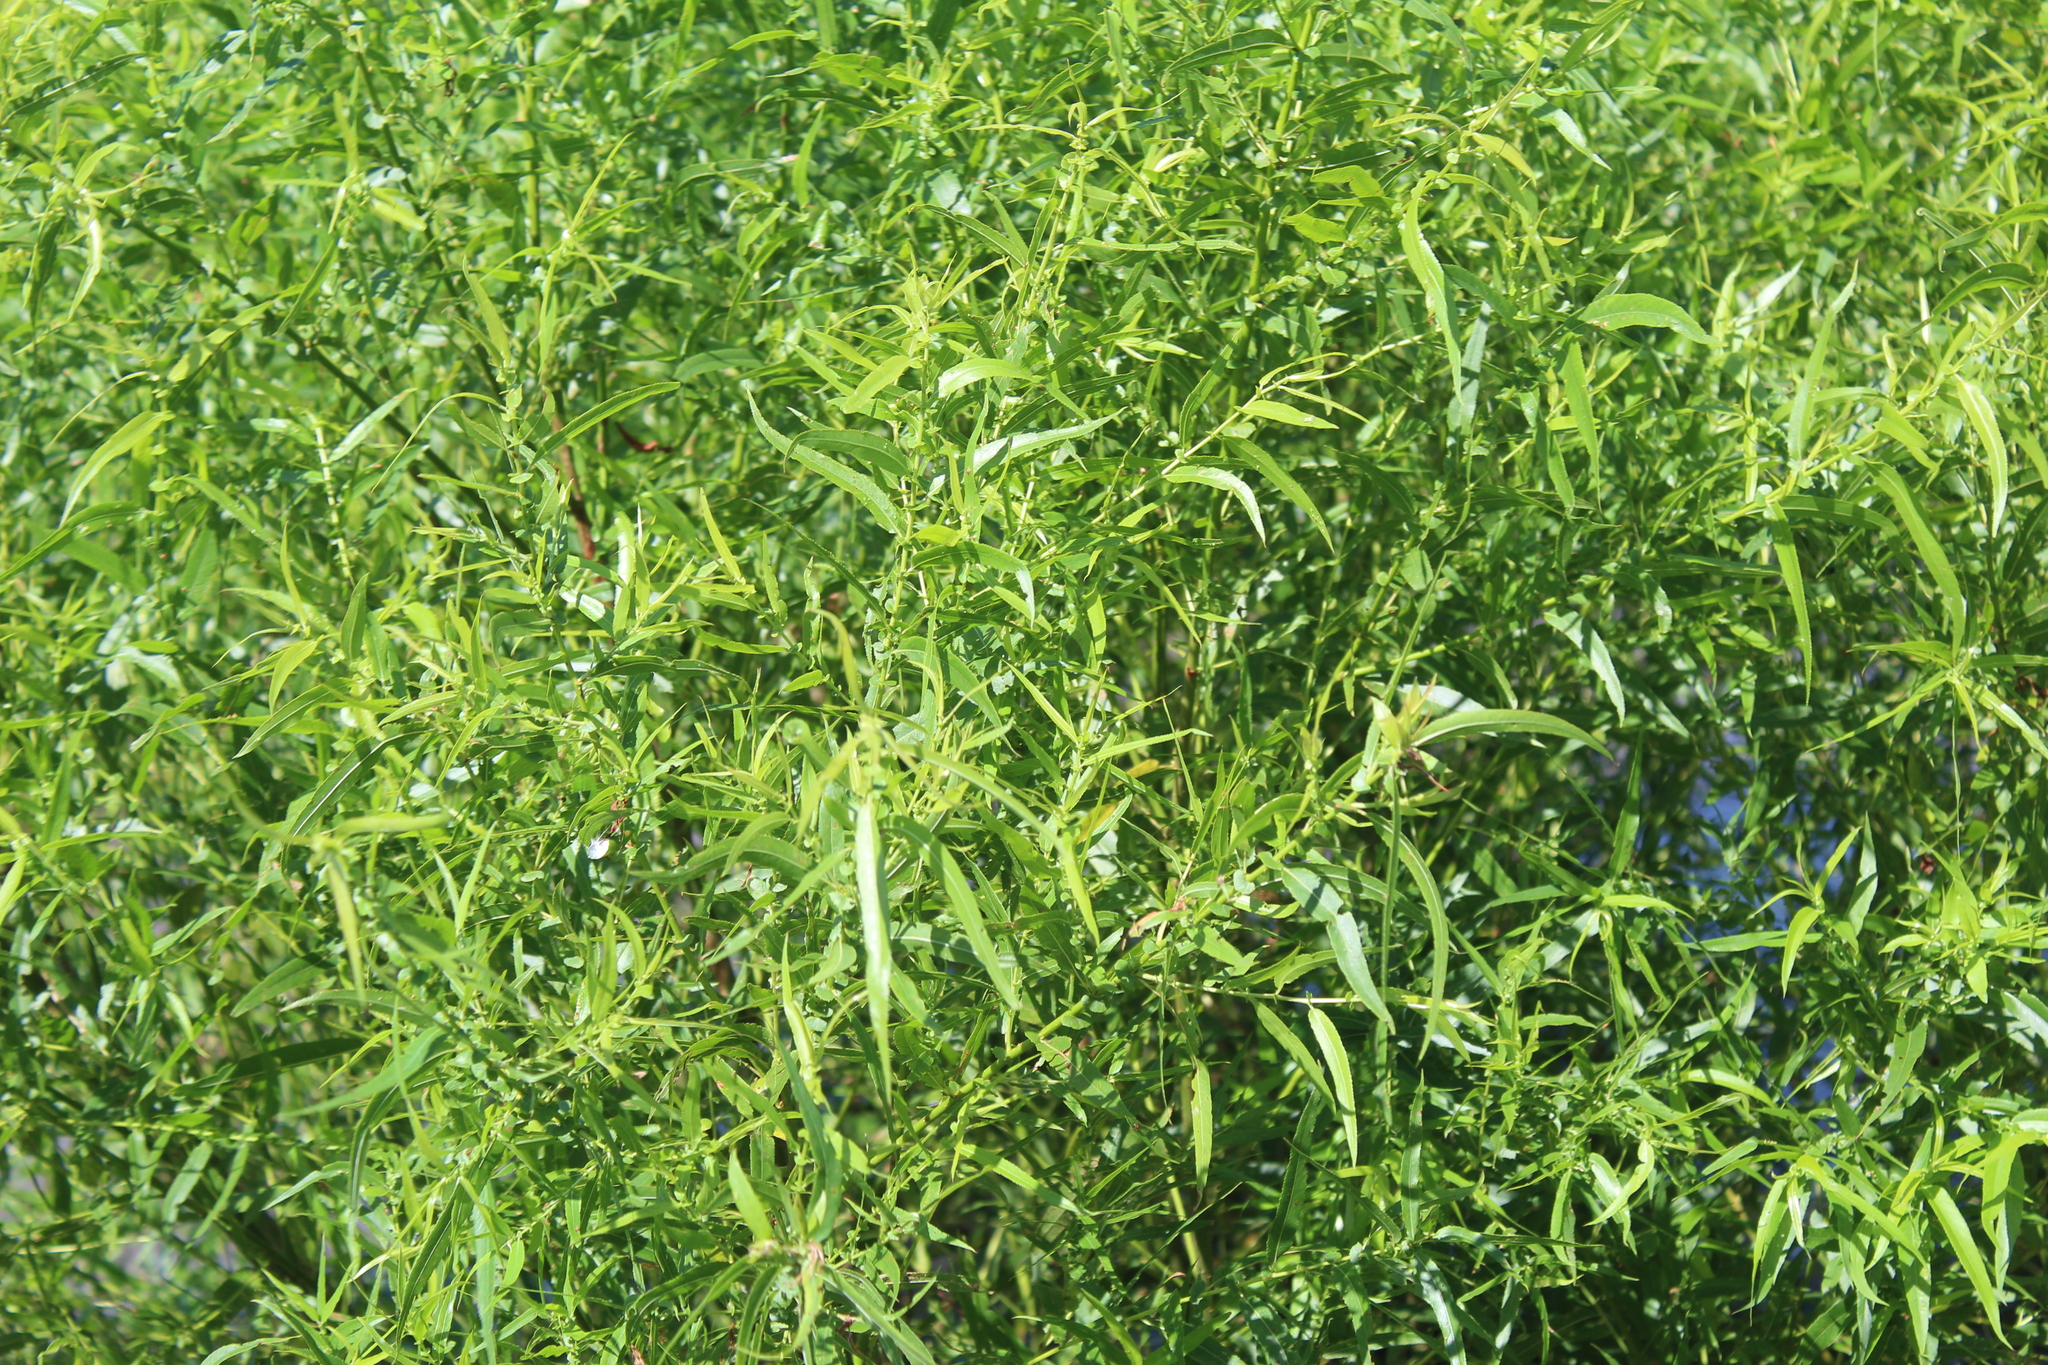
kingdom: Plantae
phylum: Tracheophyta
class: Magnoliopsida
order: Malpighiales
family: Salicaceae
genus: Salix
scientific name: Salix nigra
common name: Black willow
